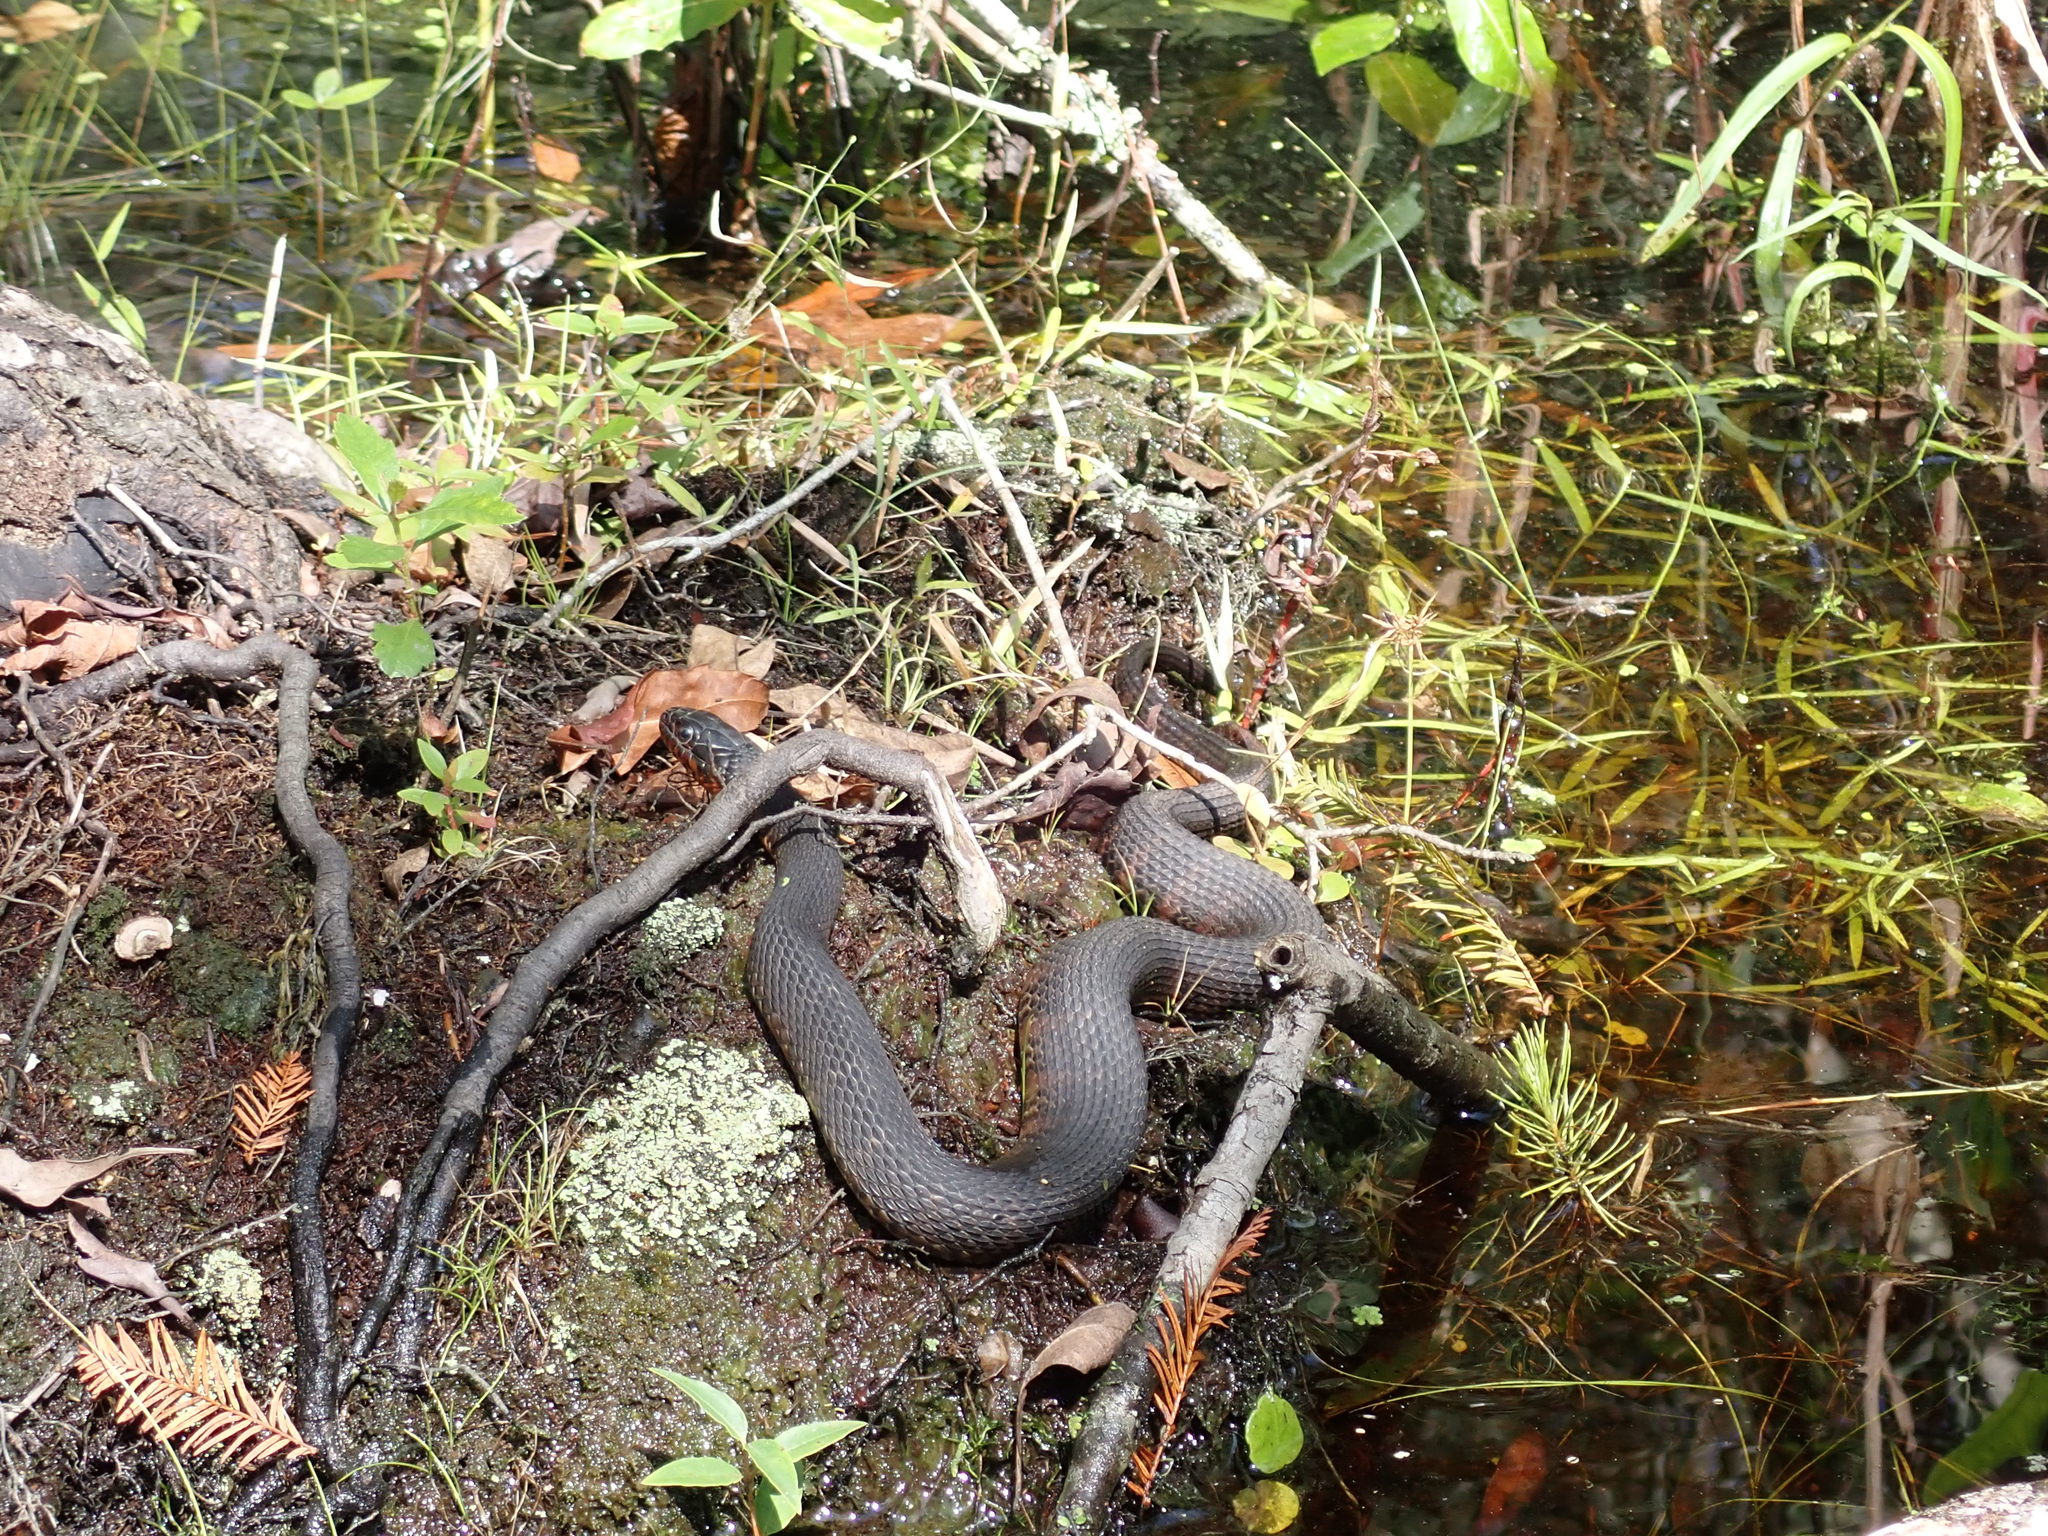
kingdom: Animalia
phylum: Chordata
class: Squamata
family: Colubridae
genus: Nerodia
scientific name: Nerodia fasciata
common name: Southern water snake
